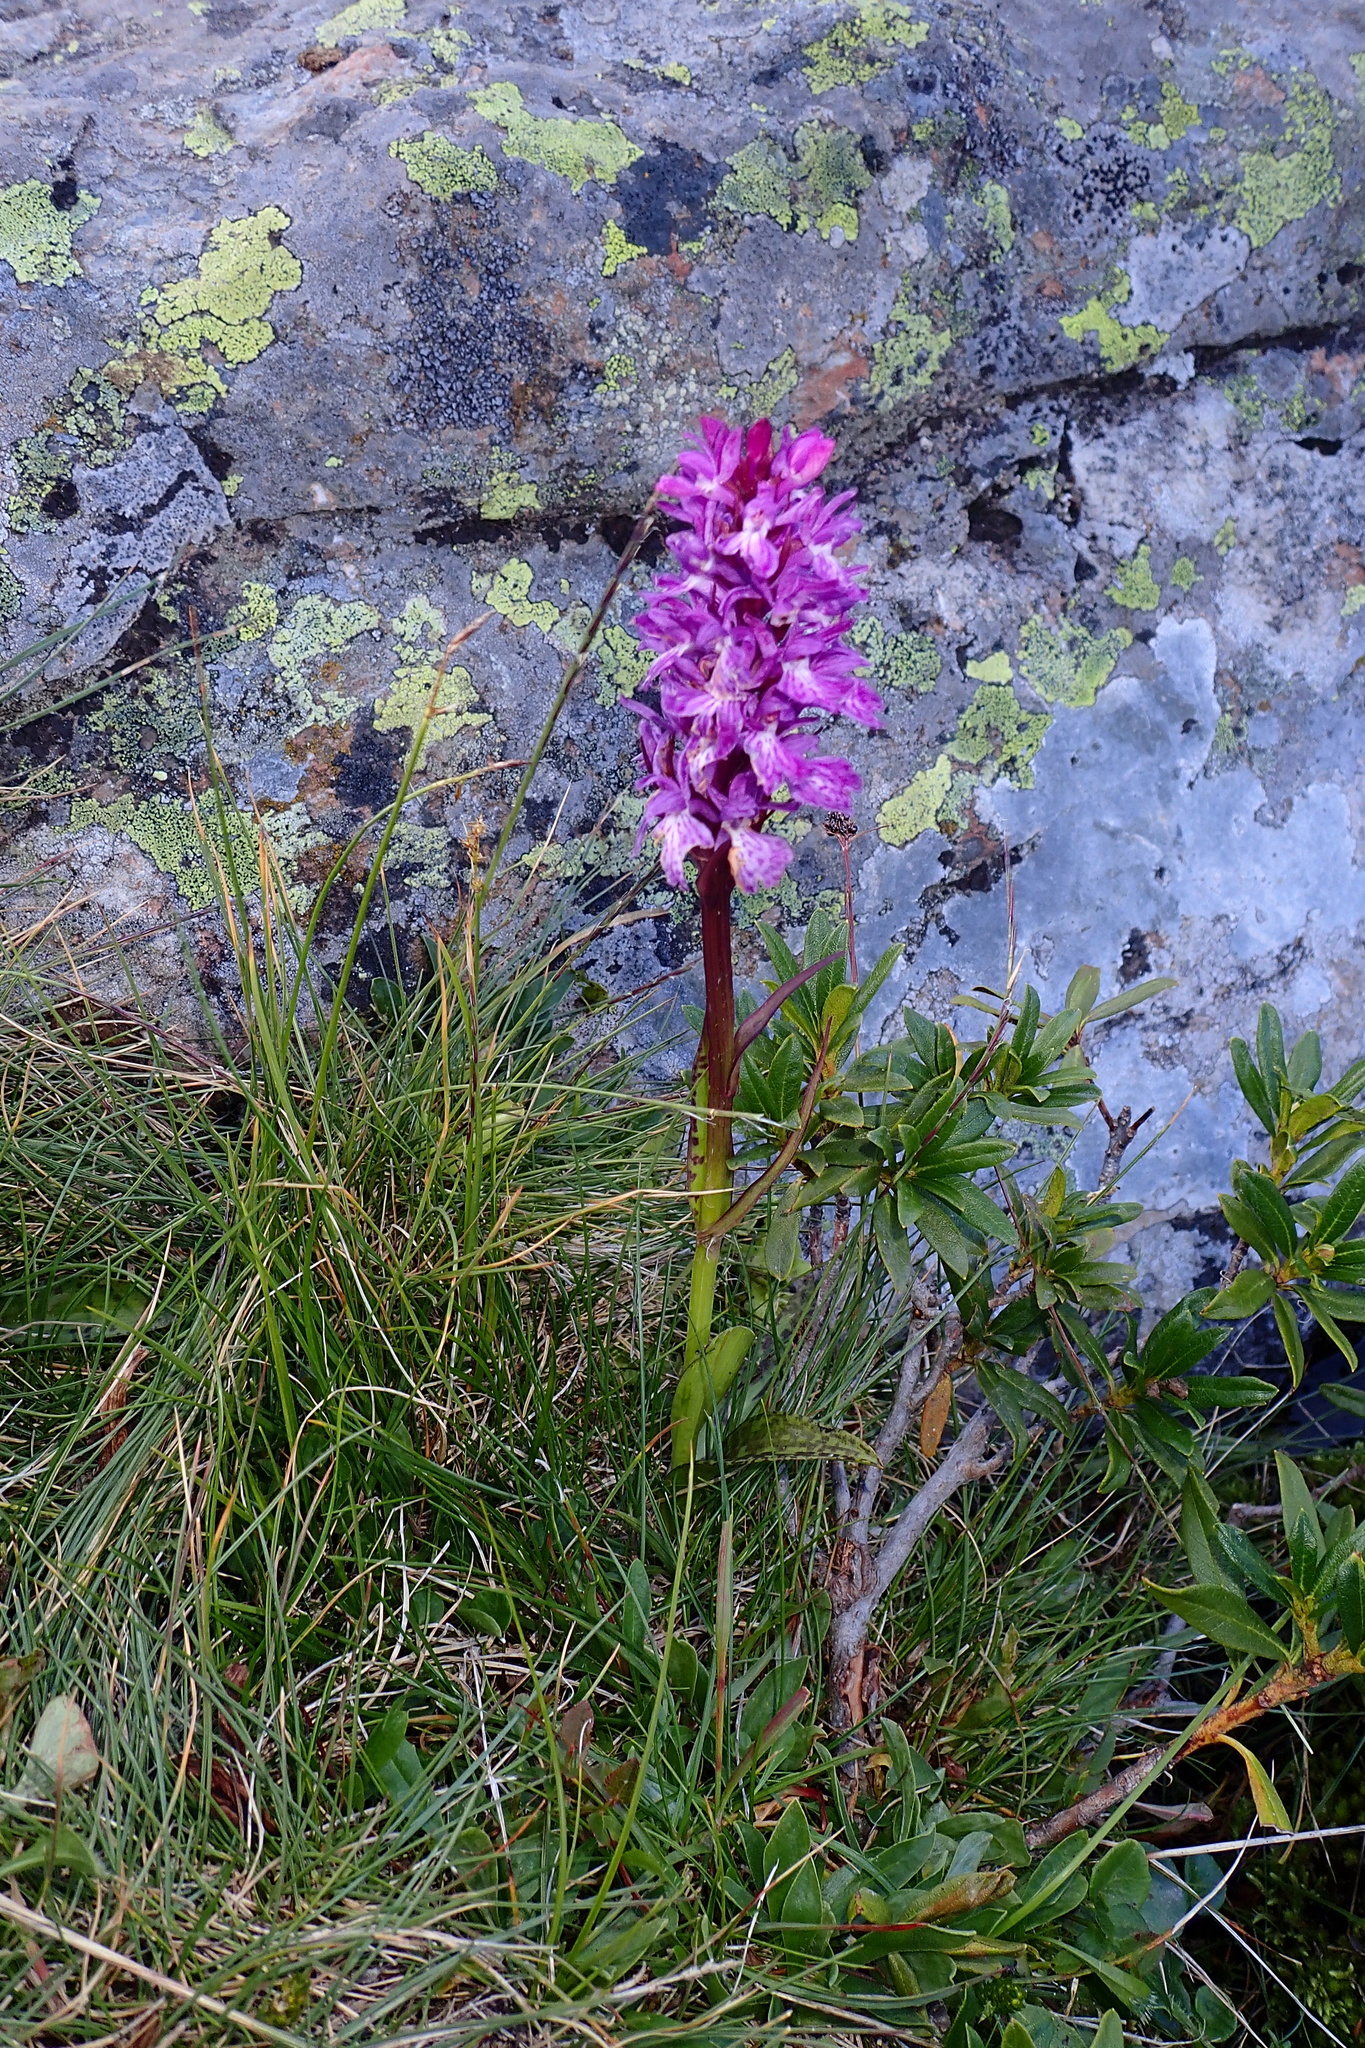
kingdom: Plantae
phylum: Tracheophyta
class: Liliopsida
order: Asparagales
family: Orchidaceae
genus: Dactylorhiza
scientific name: Dactylorhiza majalis
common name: Marsh orchid
